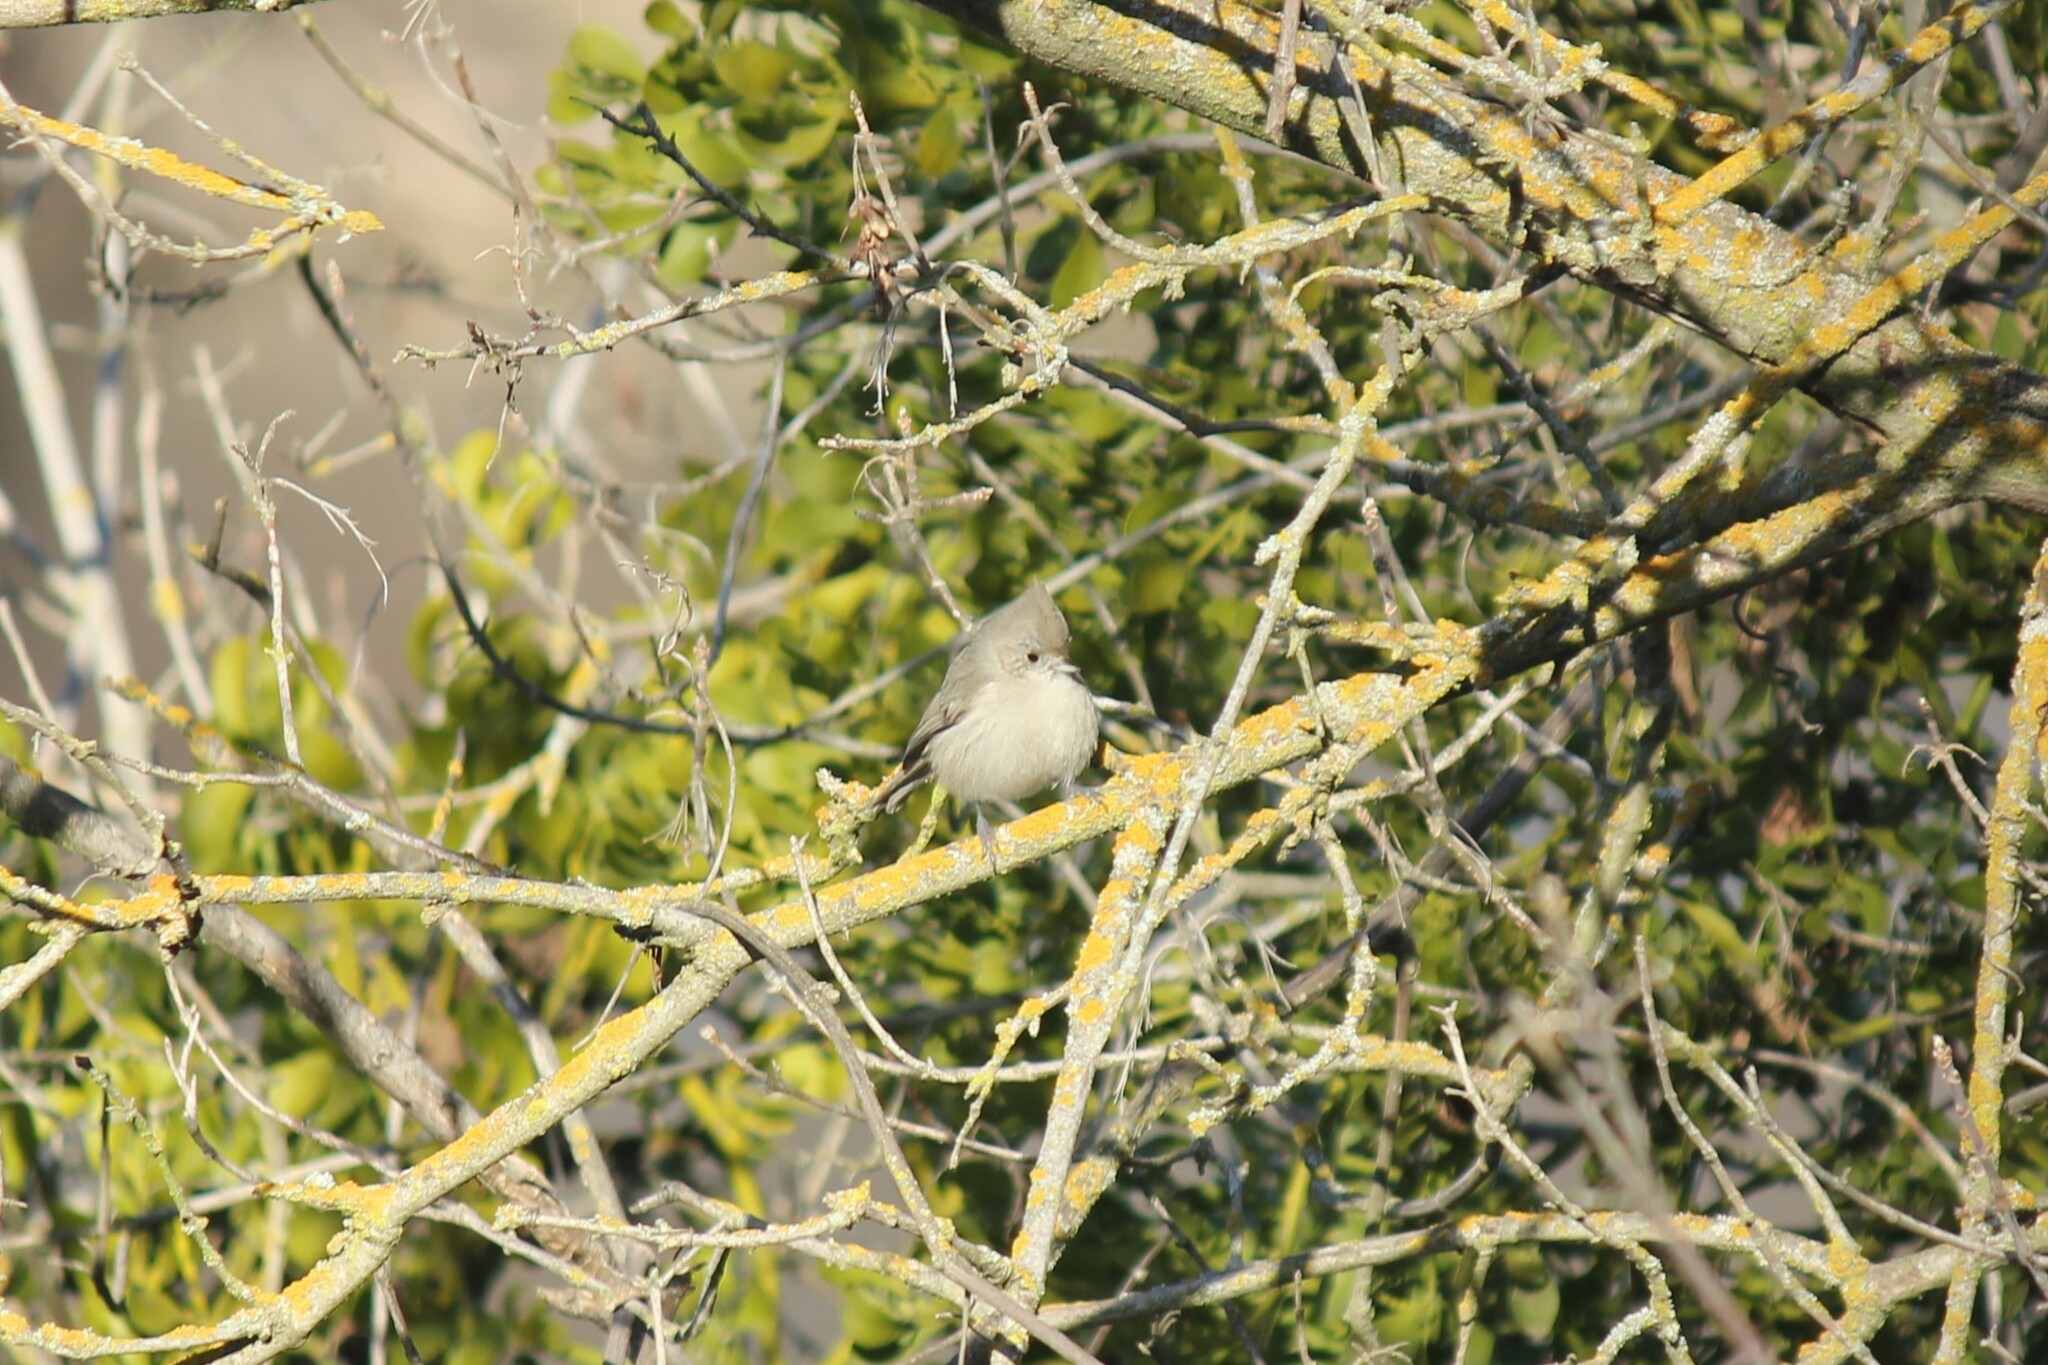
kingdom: Animalia
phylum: Chordata
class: Aves
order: Passeriformes
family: Paridae
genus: Baeolophus
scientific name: Baeolophus inornatus
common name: Oak titmouse
